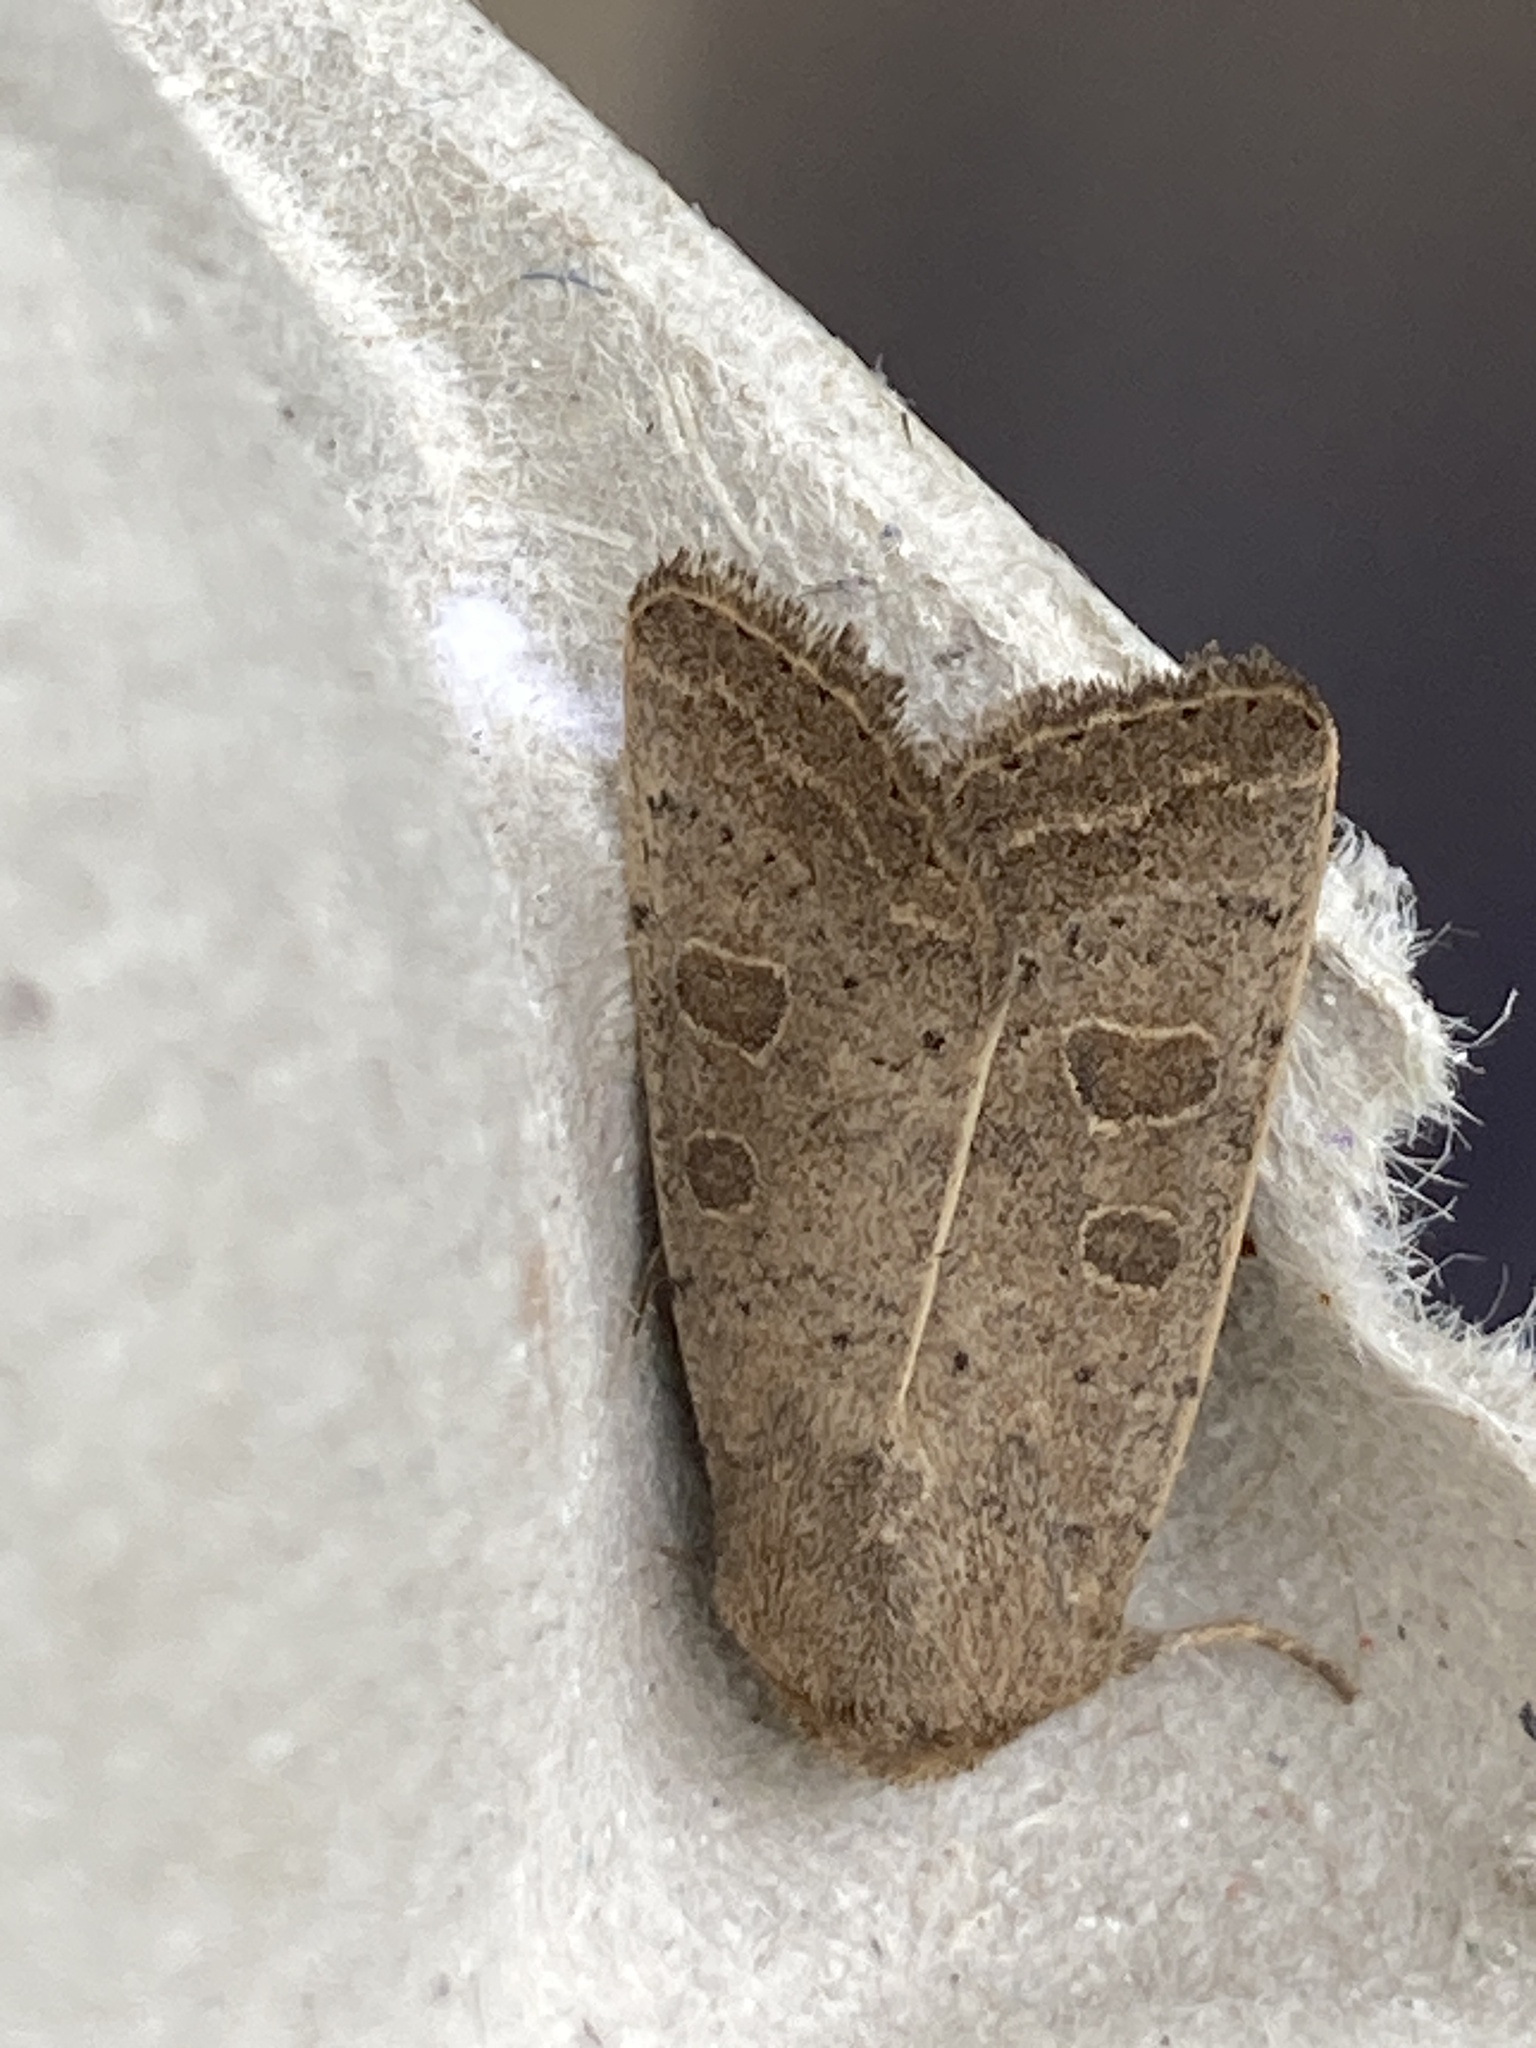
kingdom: Animalia
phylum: Arthropoda
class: Insecta
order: Lepidoptera
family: Noctuidae
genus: Hoplodrina
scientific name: Hoplodrina ambigua
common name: Vine's rustic
